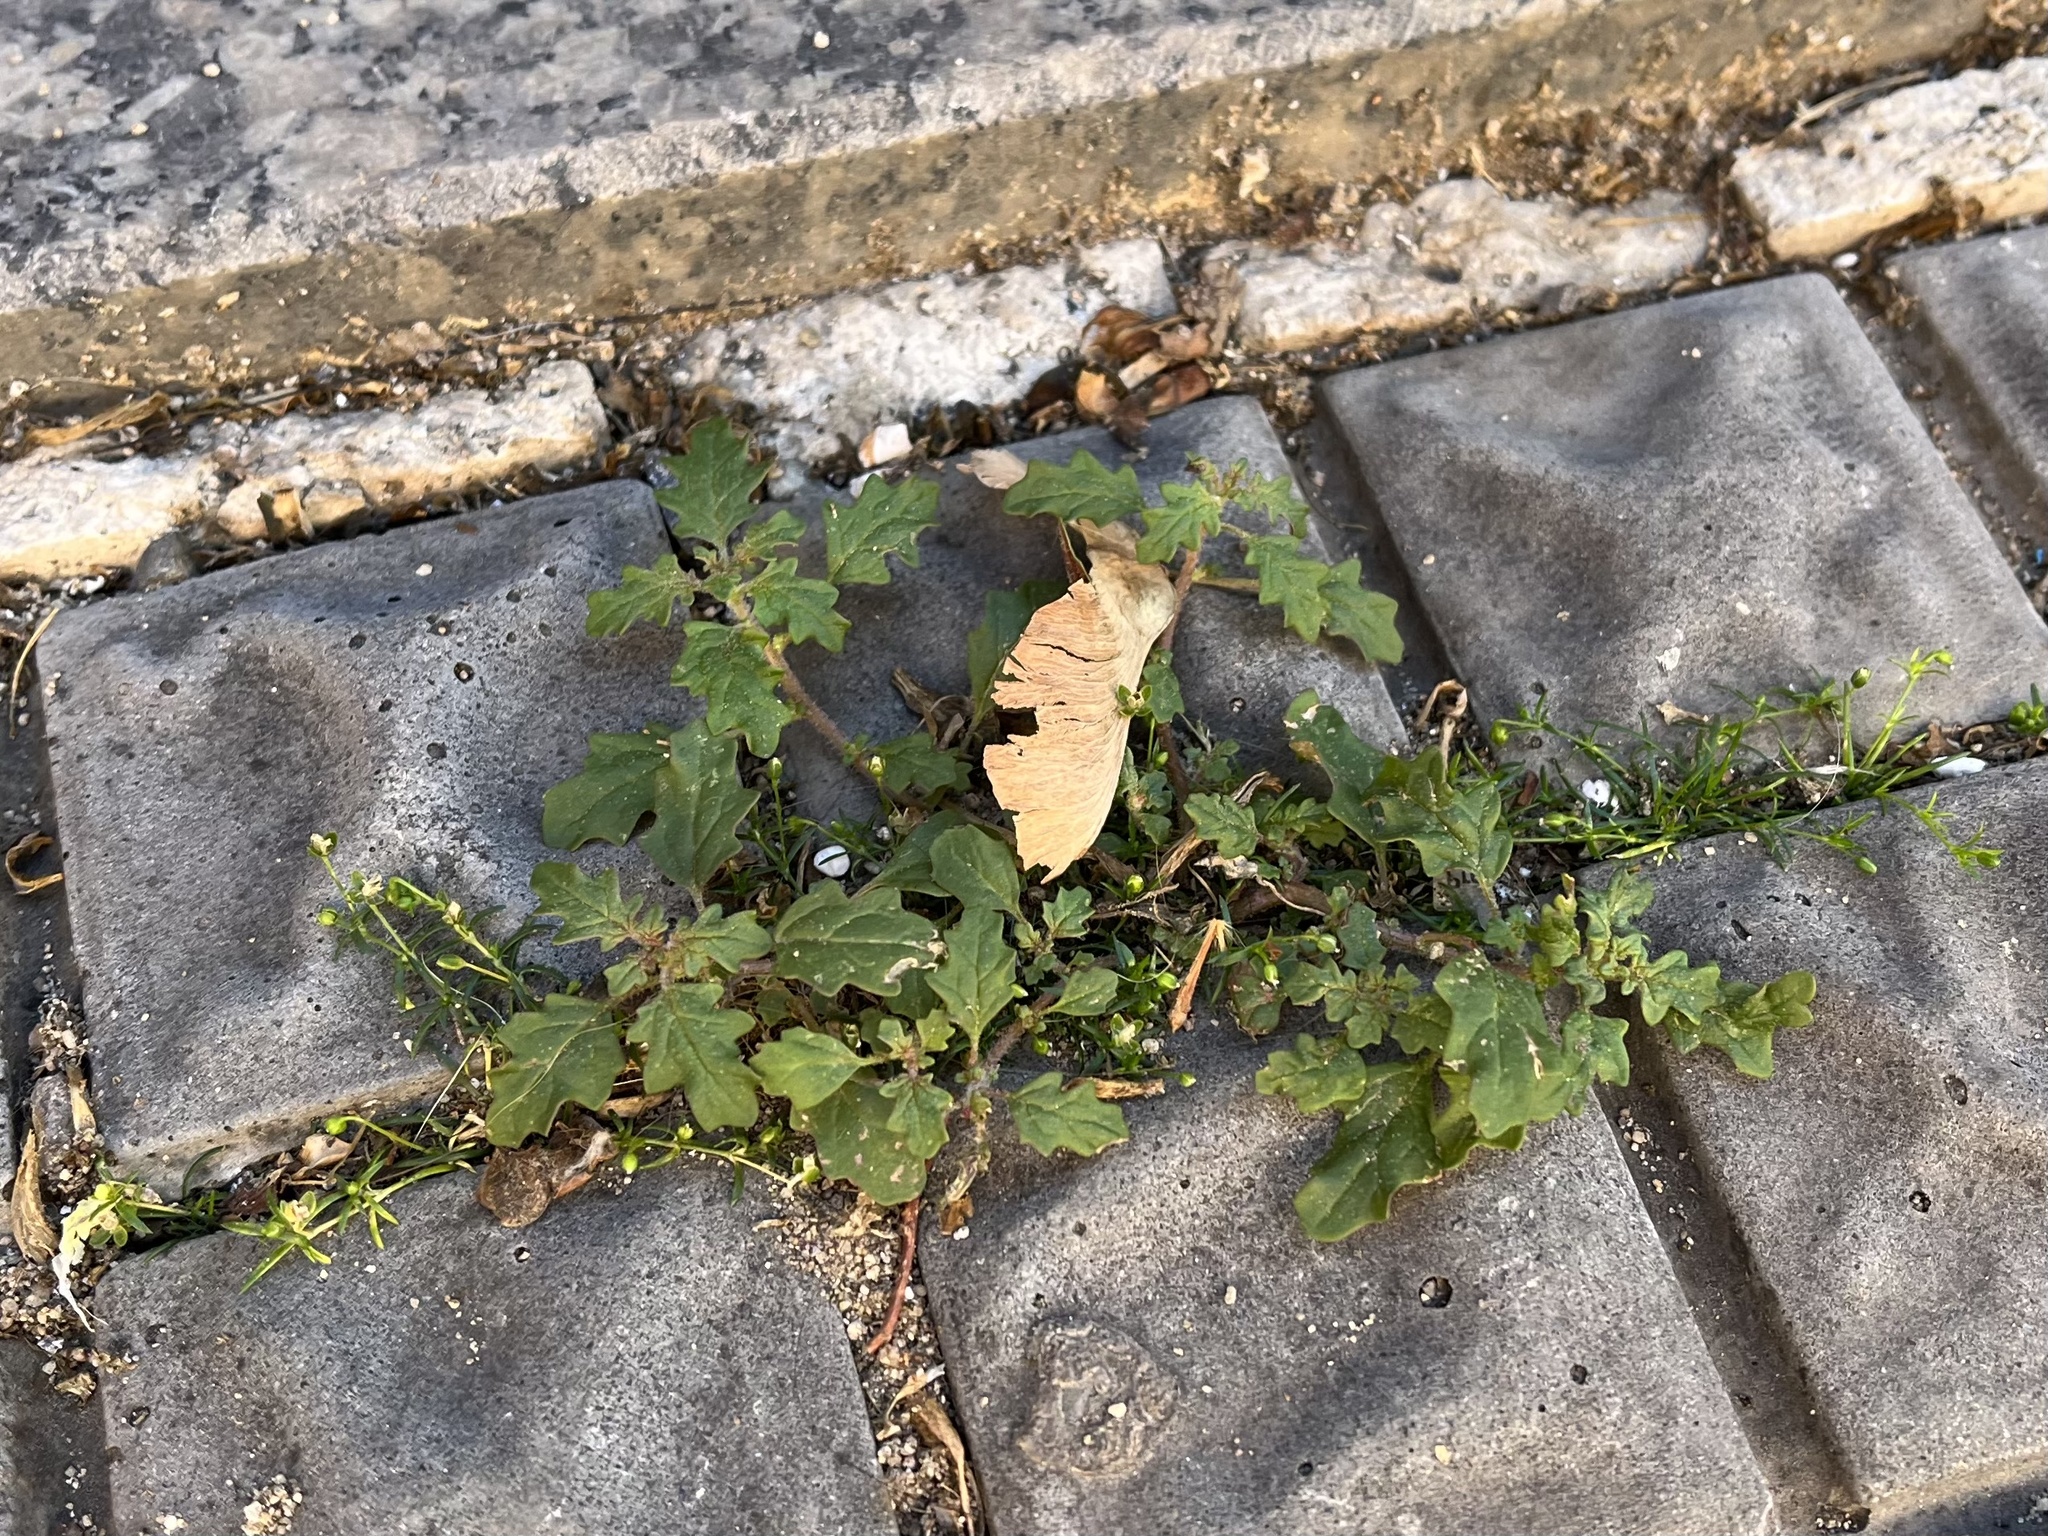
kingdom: Plantae
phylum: Tracheophyta
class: Magnoliopsida
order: Caryophyllales
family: Amaranthaceae
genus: Dysphania
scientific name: Dysphania pumilio
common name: Clammy goosefoot
